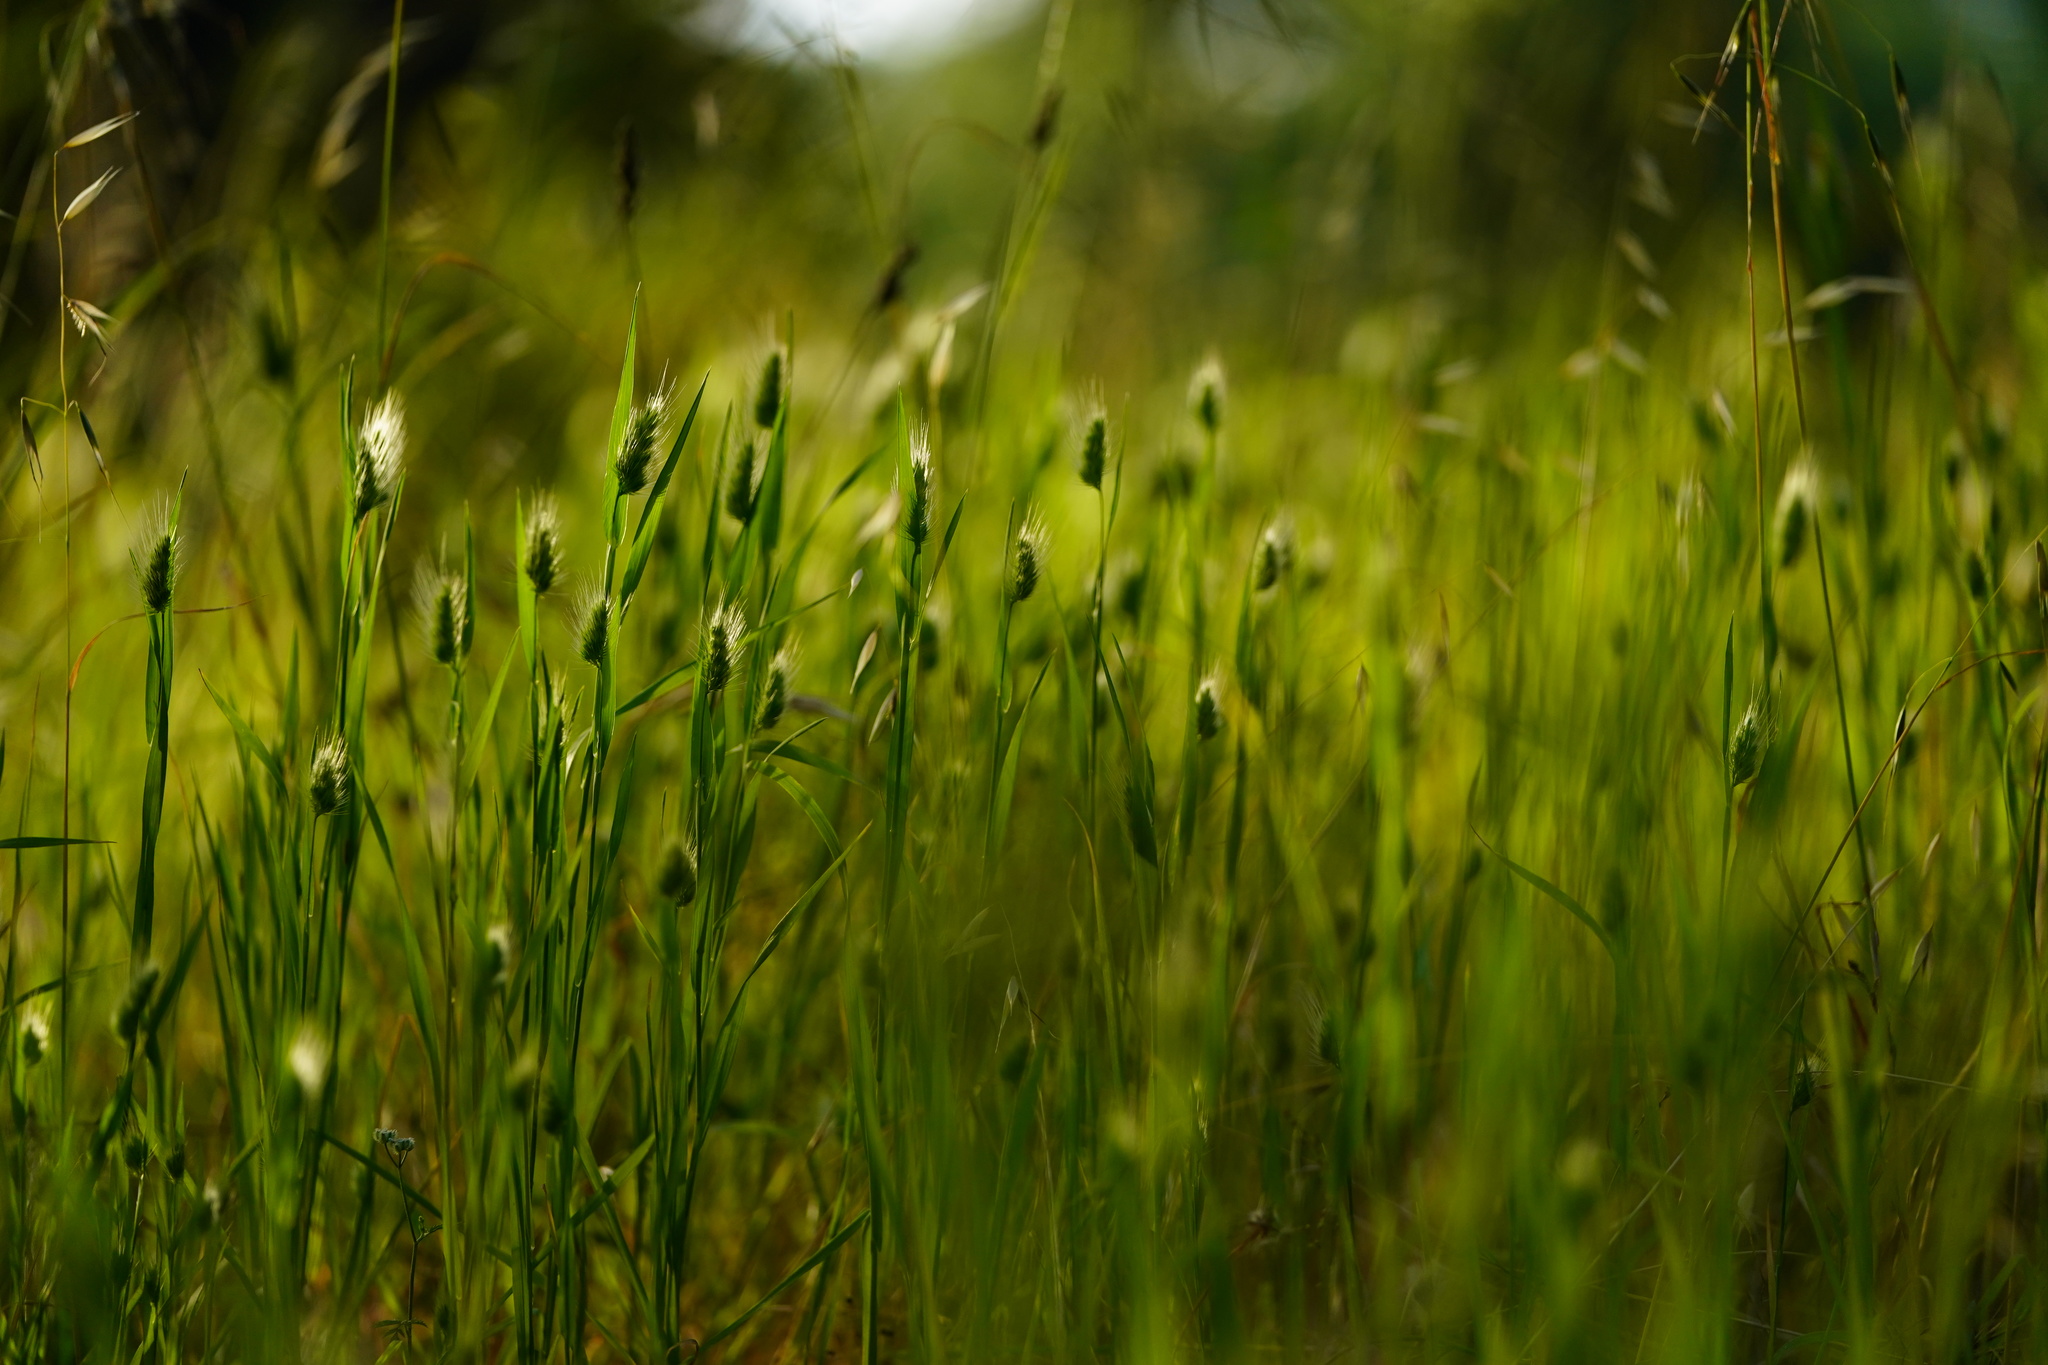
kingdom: Plantae
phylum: Tracheophyta
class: Liliopsida
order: Poales
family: Poaceae
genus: Cynosurus
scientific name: Cynosurus echinatus
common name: Rough dog's-tail
